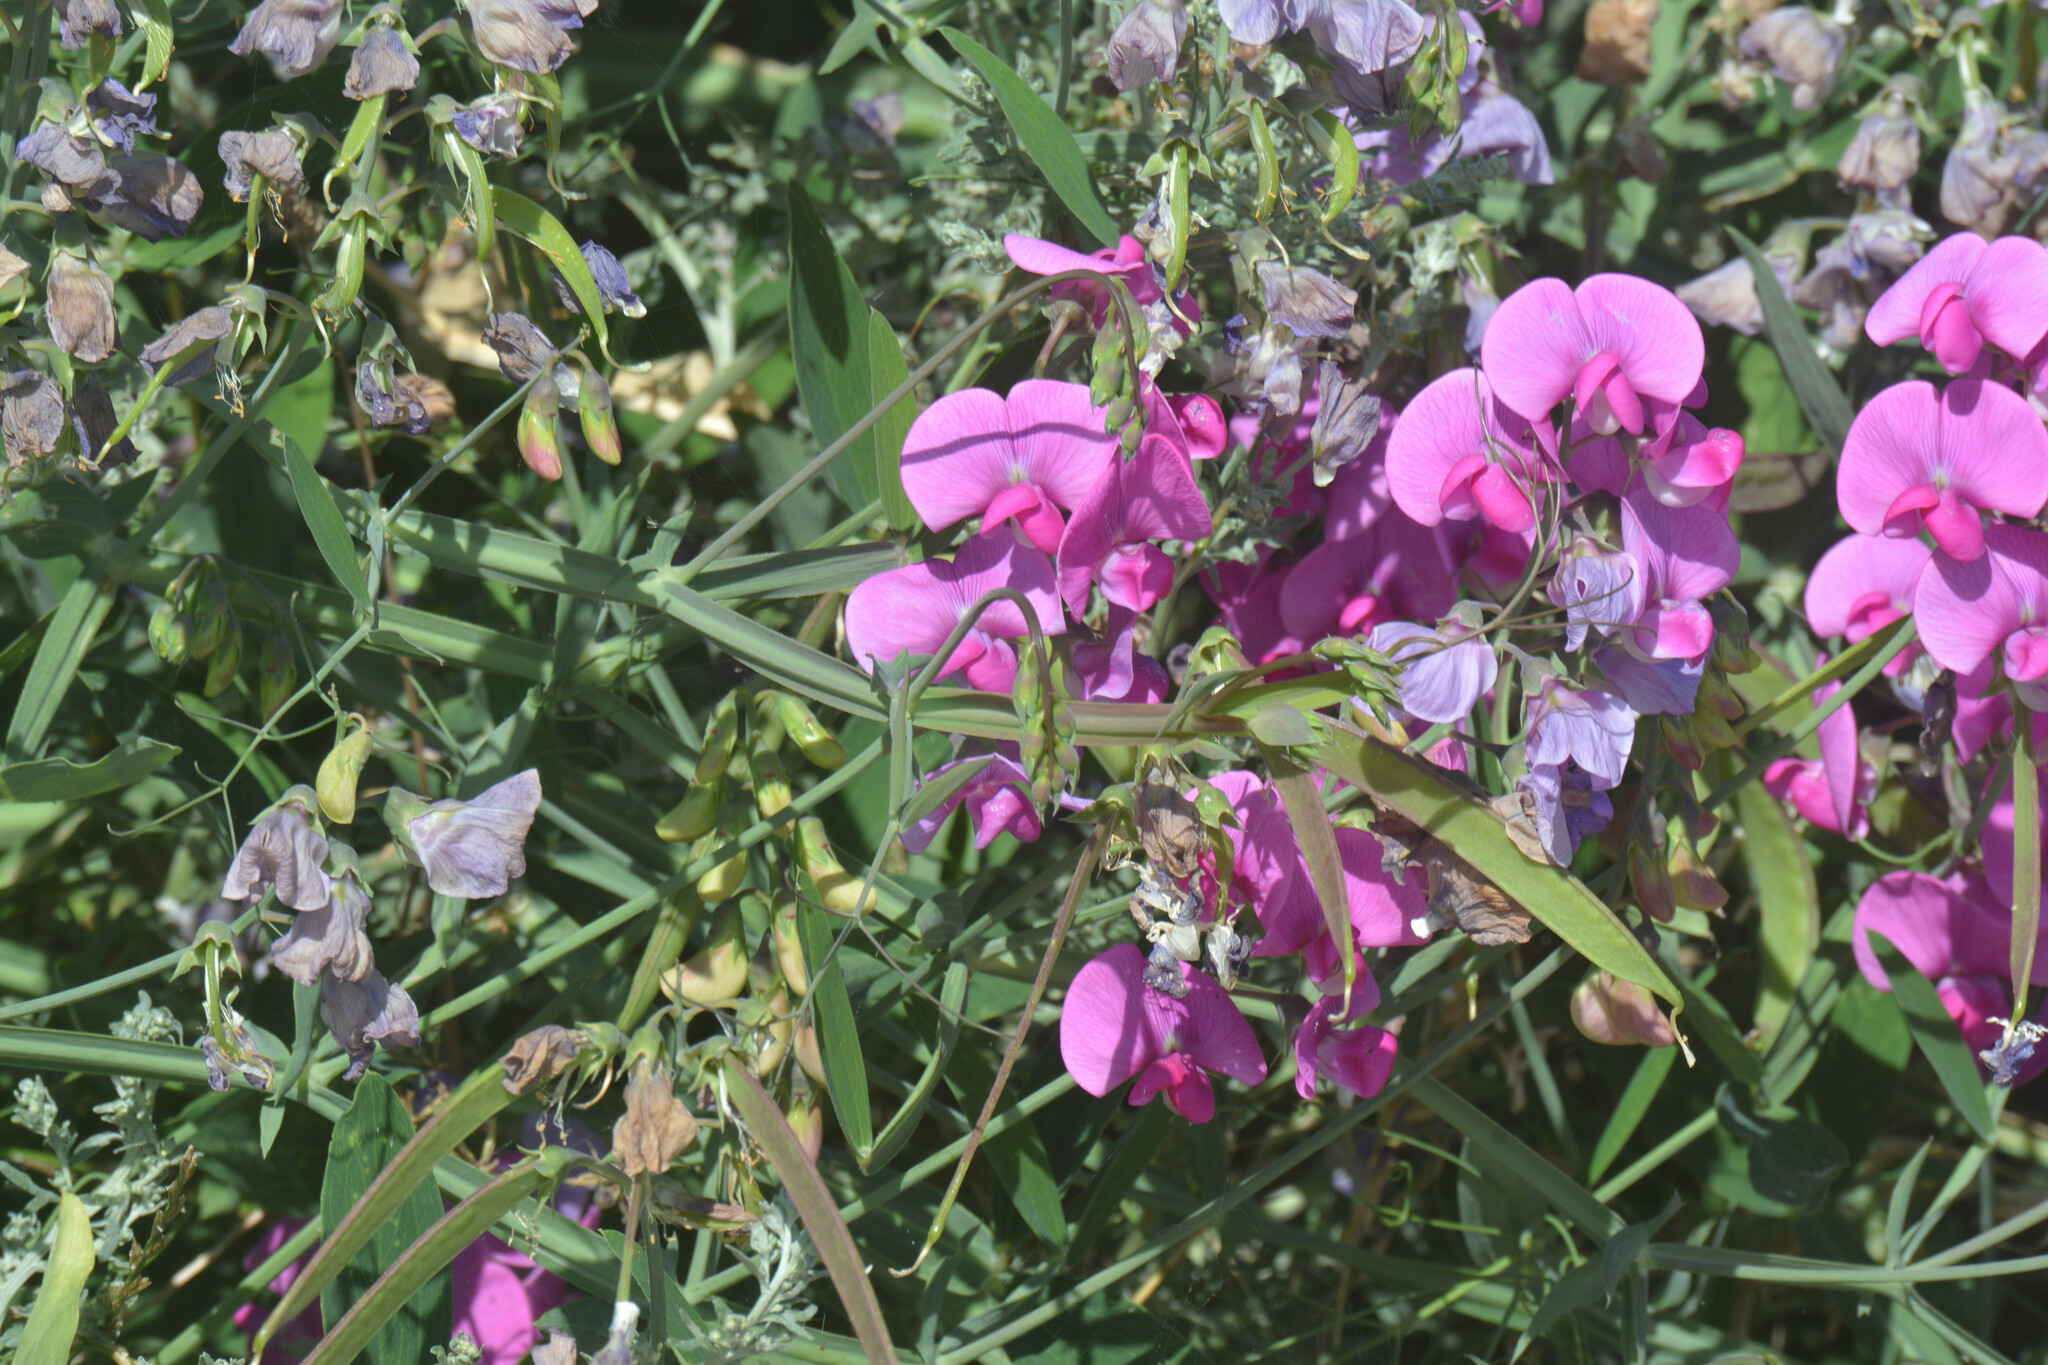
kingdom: Plantae
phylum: Tracheophyta
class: Magnoliopsida
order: Fabales
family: Fabaceae
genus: Lathyrus
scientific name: Lathyrus latifolius
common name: Perennial pea
